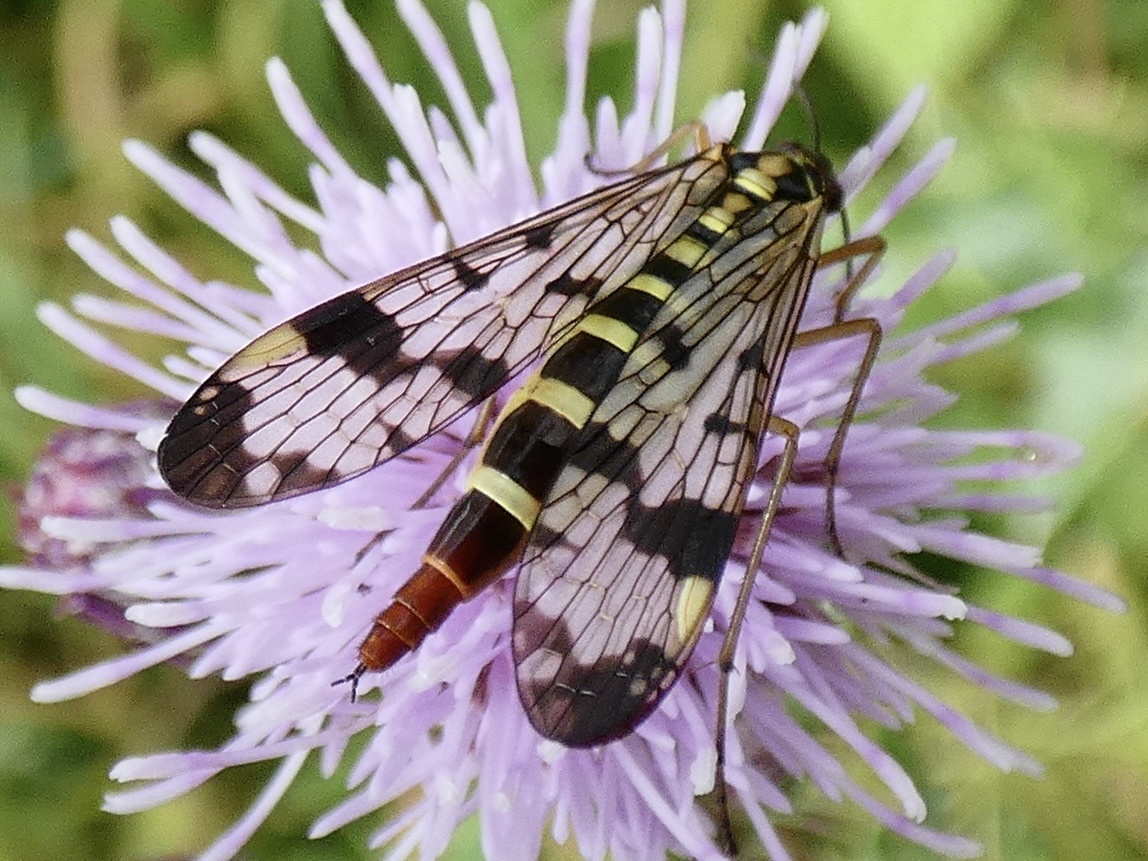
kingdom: Animalia
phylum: Arthropoda
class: Insecta
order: Mecoptera
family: Panorpidae
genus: Panorpa
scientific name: Panorpa communis
